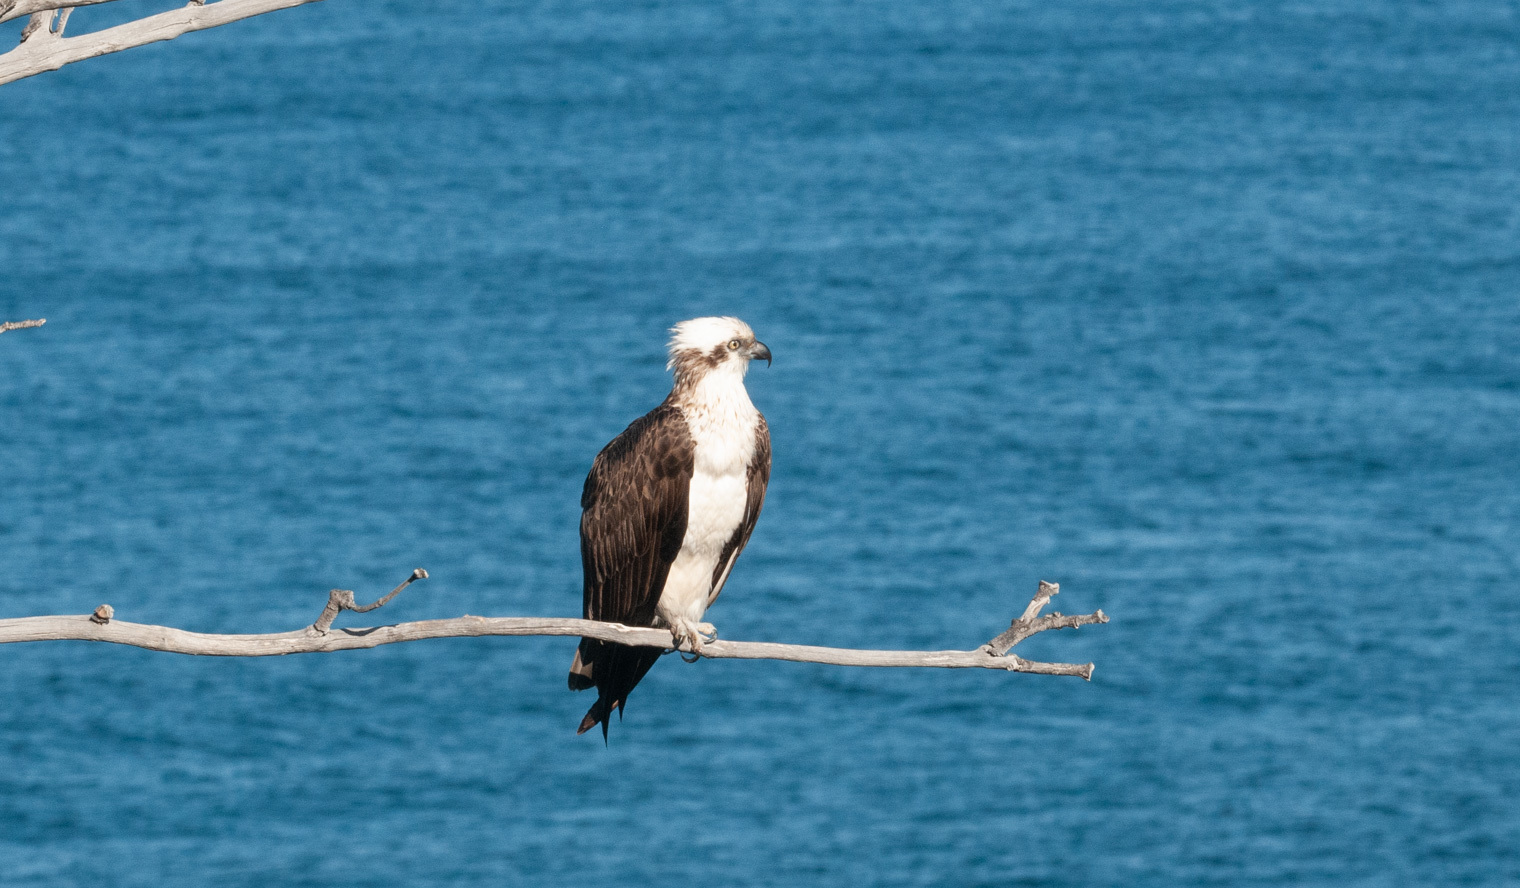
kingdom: Animalia
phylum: Chordata
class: Aves
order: Accipitriformes
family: Pandionidae
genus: Pandion
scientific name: Pandion haliaetus
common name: Osprey
